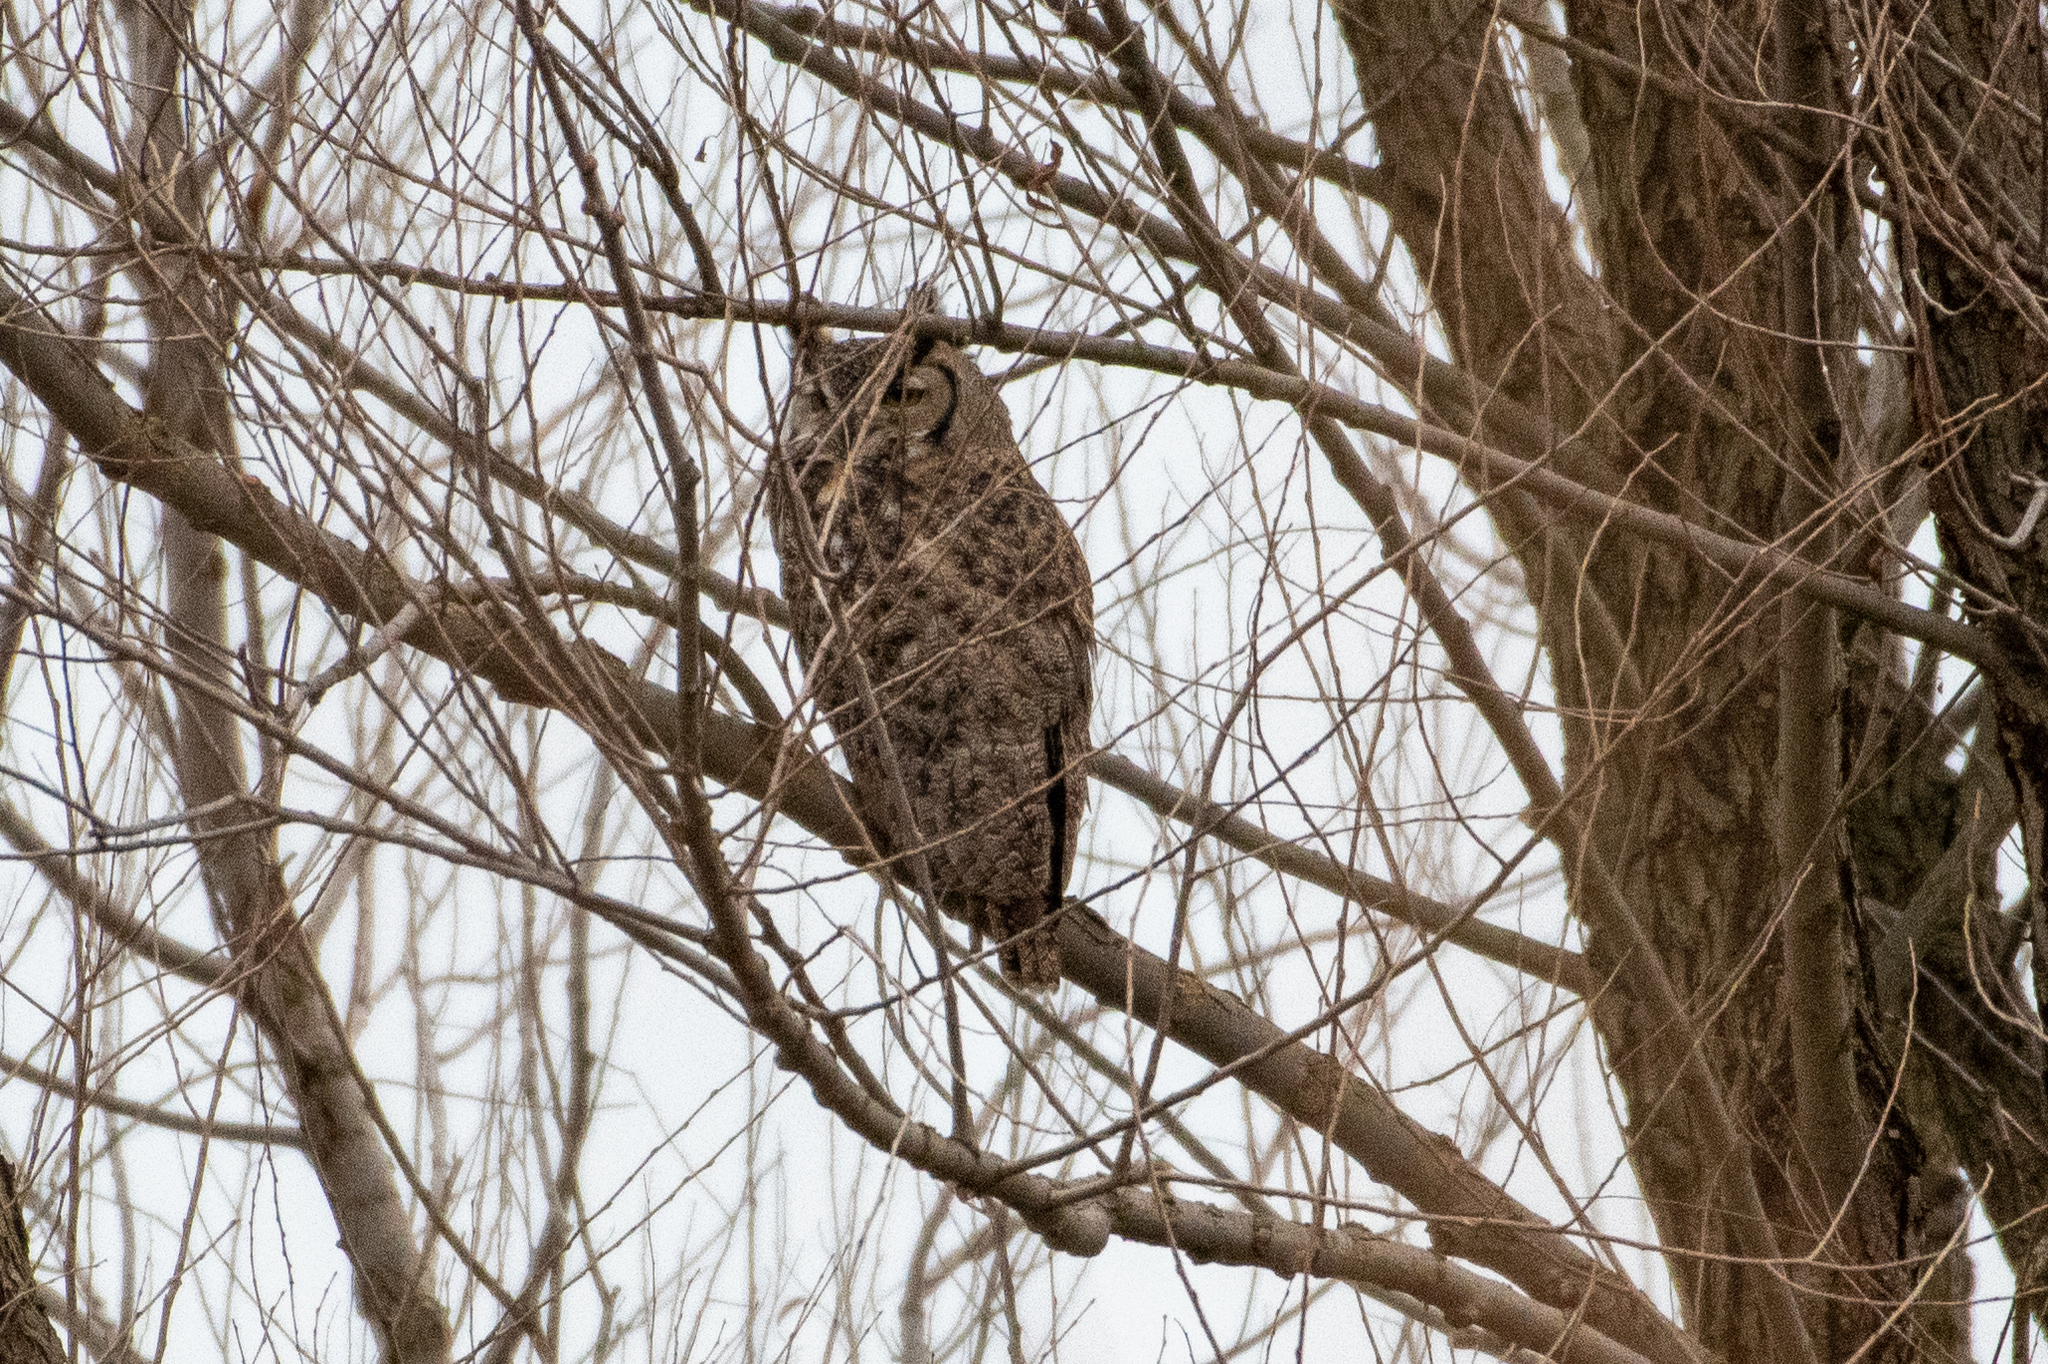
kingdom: Animalia
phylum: Chordata
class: Aves
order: Strigiformes
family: Strigidae
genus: Bubo
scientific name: Bubo virginianus
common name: Great horned owl
